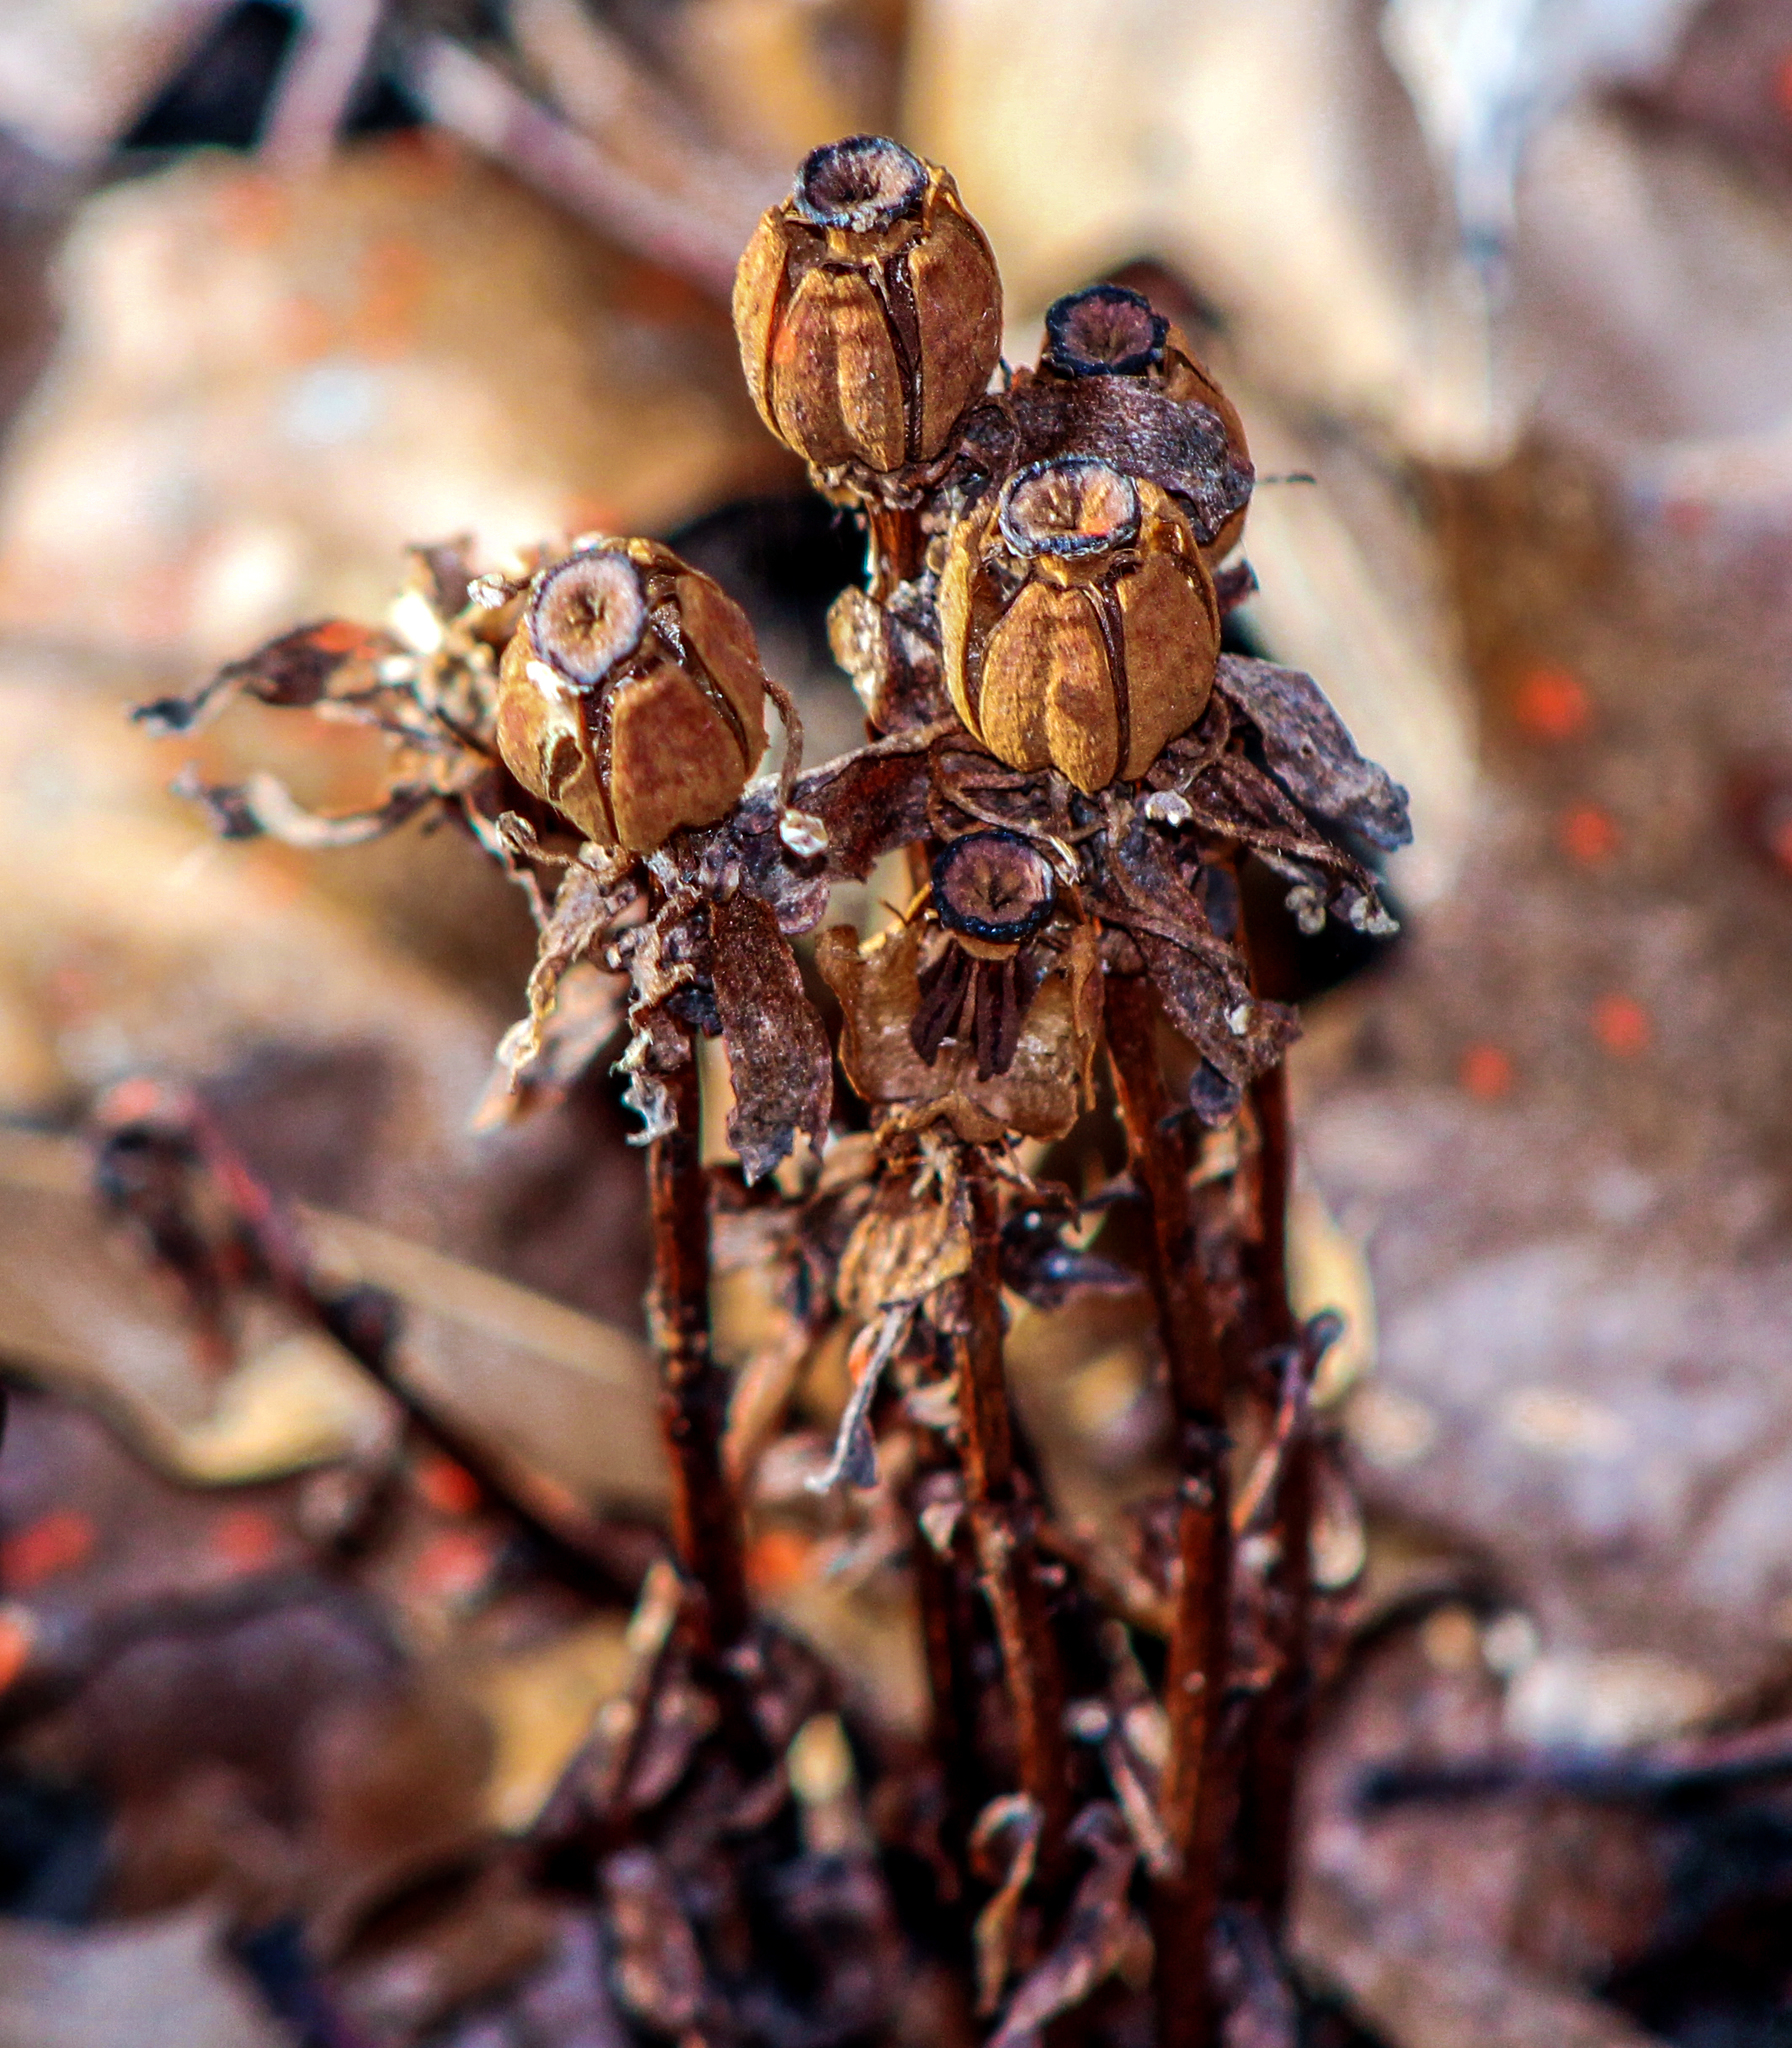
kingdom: Plantae
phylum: Tracheophyta
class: Magnoliopsida
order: Ericales
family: Ericaceae
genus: Monotropa
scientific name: Monotropa uniflora
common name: Convulsion root
